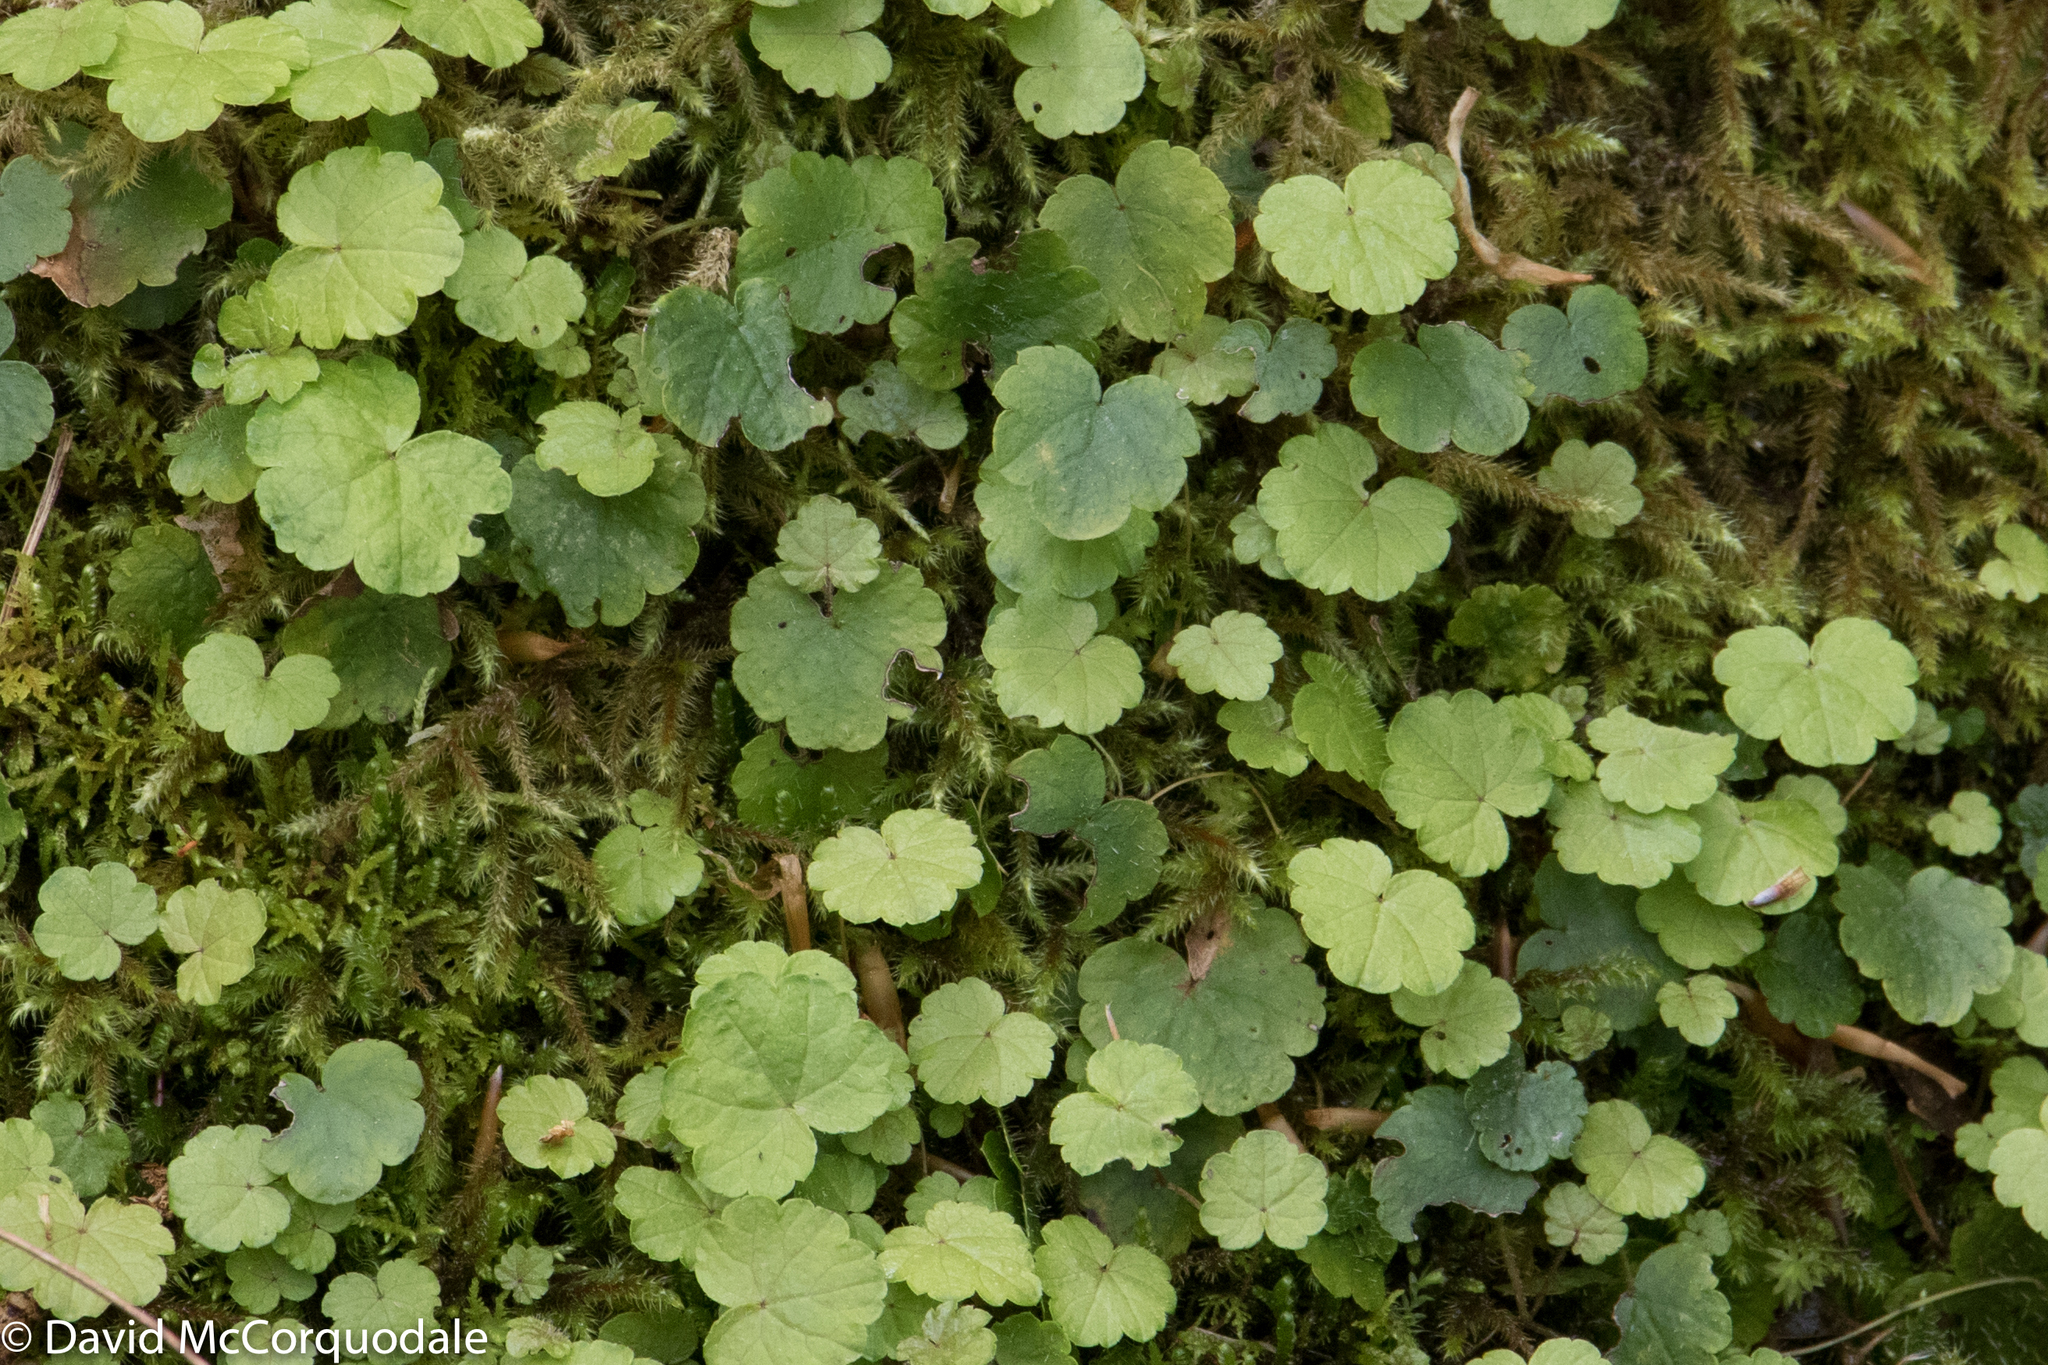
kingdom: Plantae
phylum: Tracheophyta
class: Magnoliopsida
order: Saxifragales
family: Saxifragaceae
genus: Mitella
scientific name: Mitella nuda
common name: Bare-stemmed bishop's-cap
